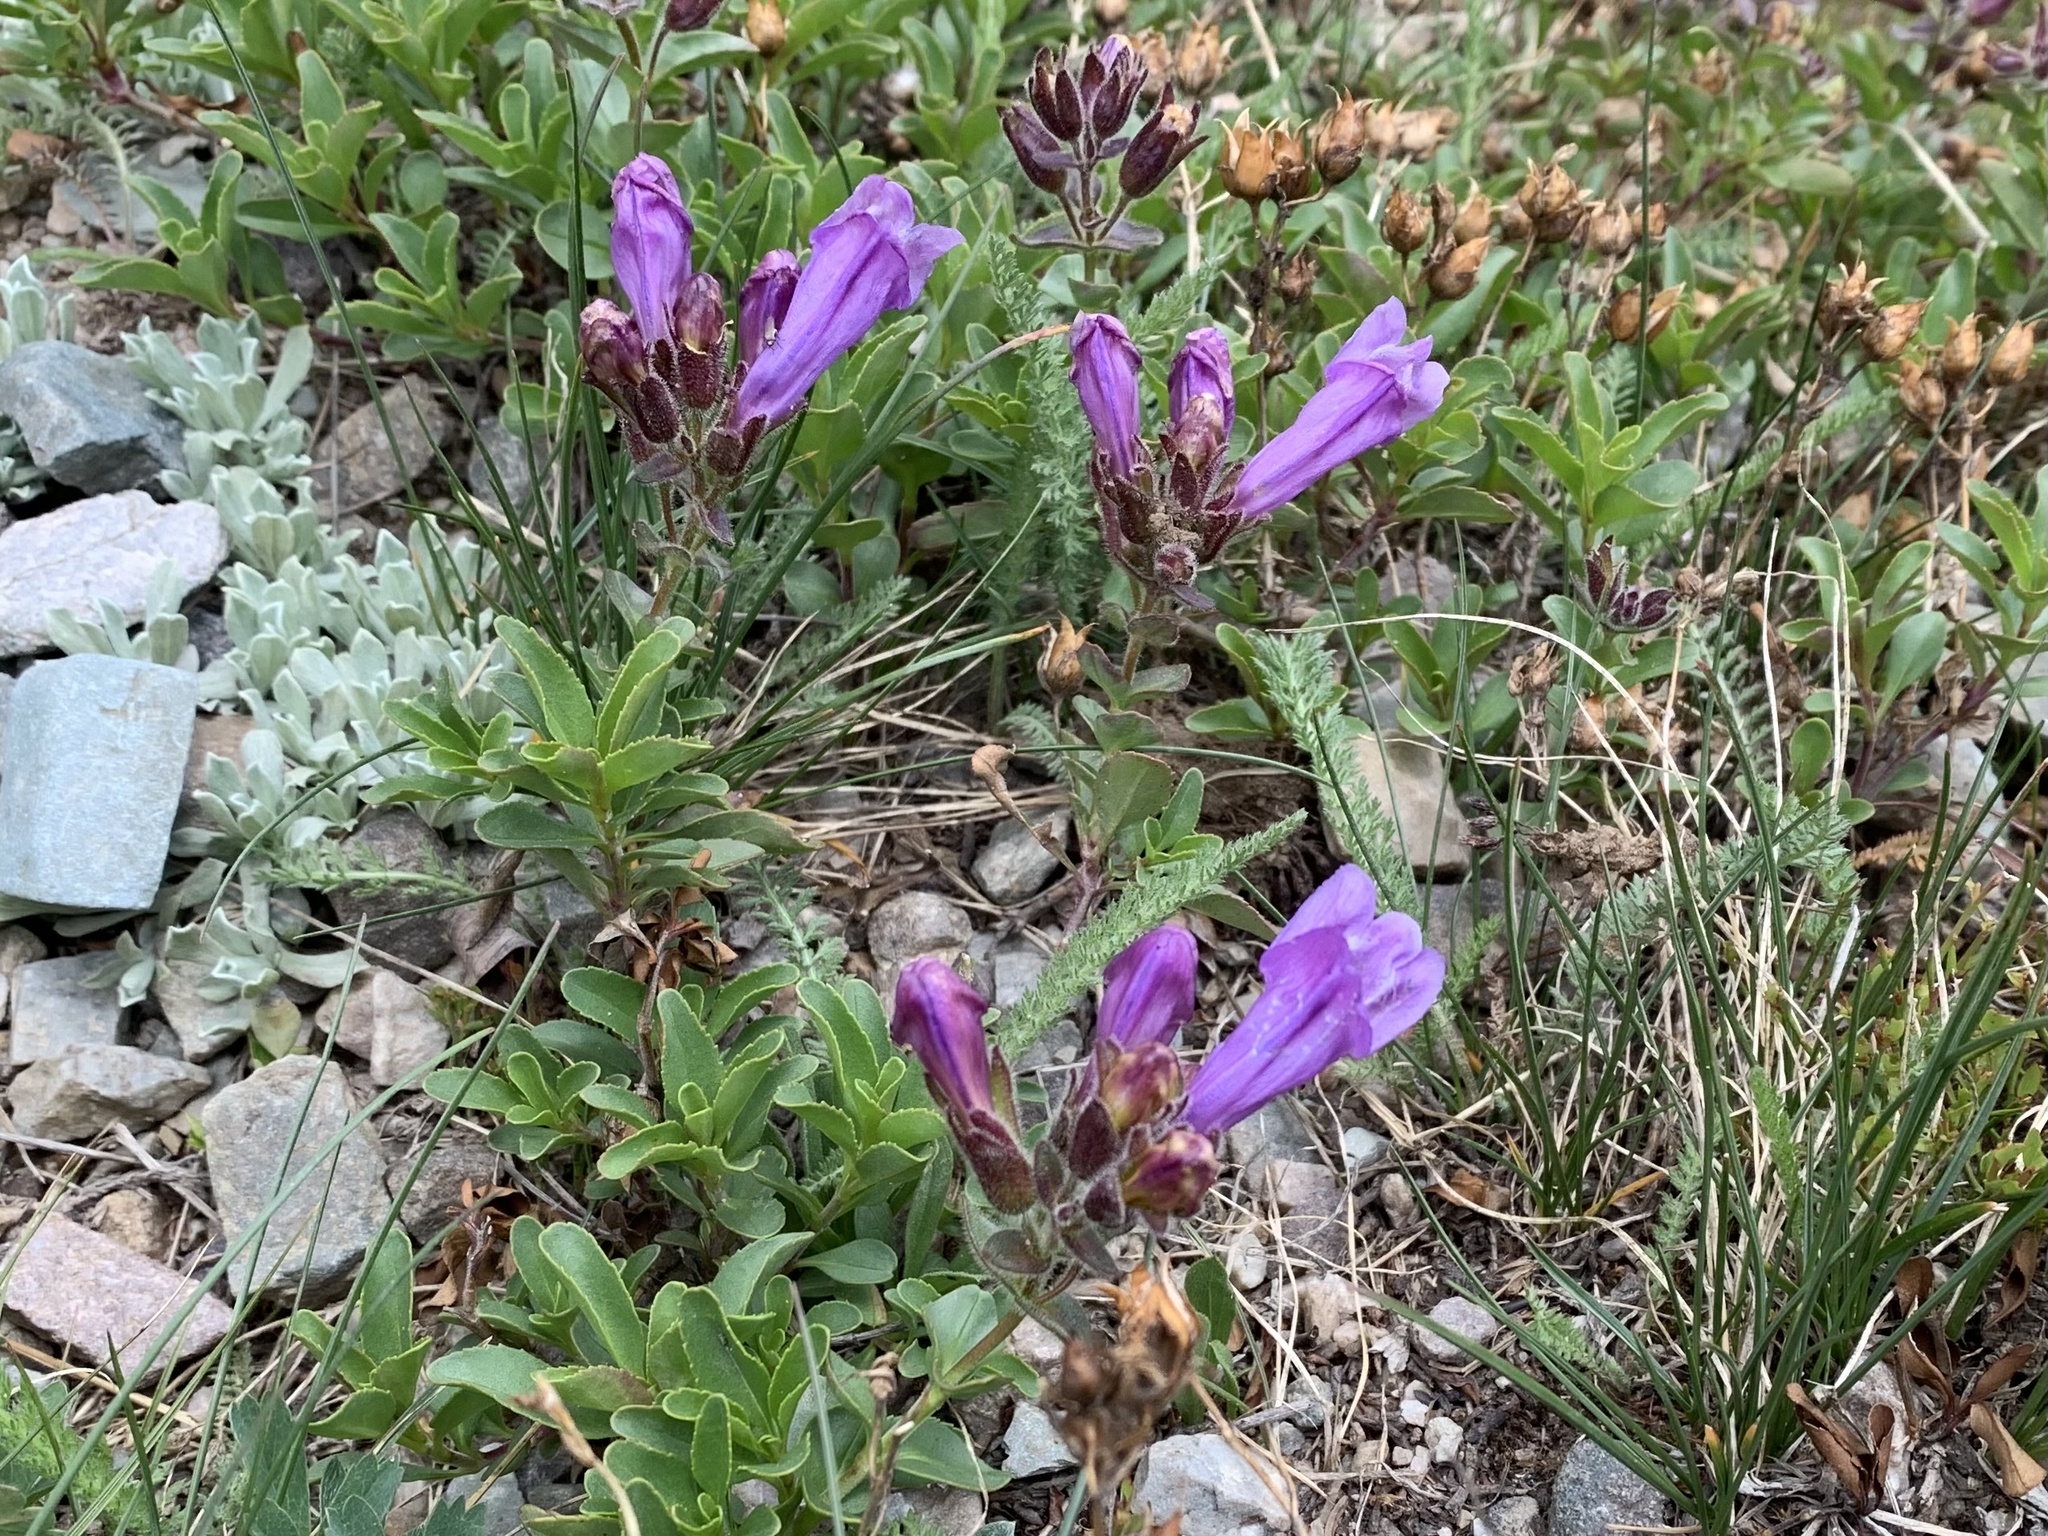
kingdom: Plantae
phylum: Tracheophyta
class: Magnoliopsida
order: Lamiales
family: Plantaginaceae
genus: Penstemon
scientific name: Penstemon ellipticus
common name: Alpine beardtongue
